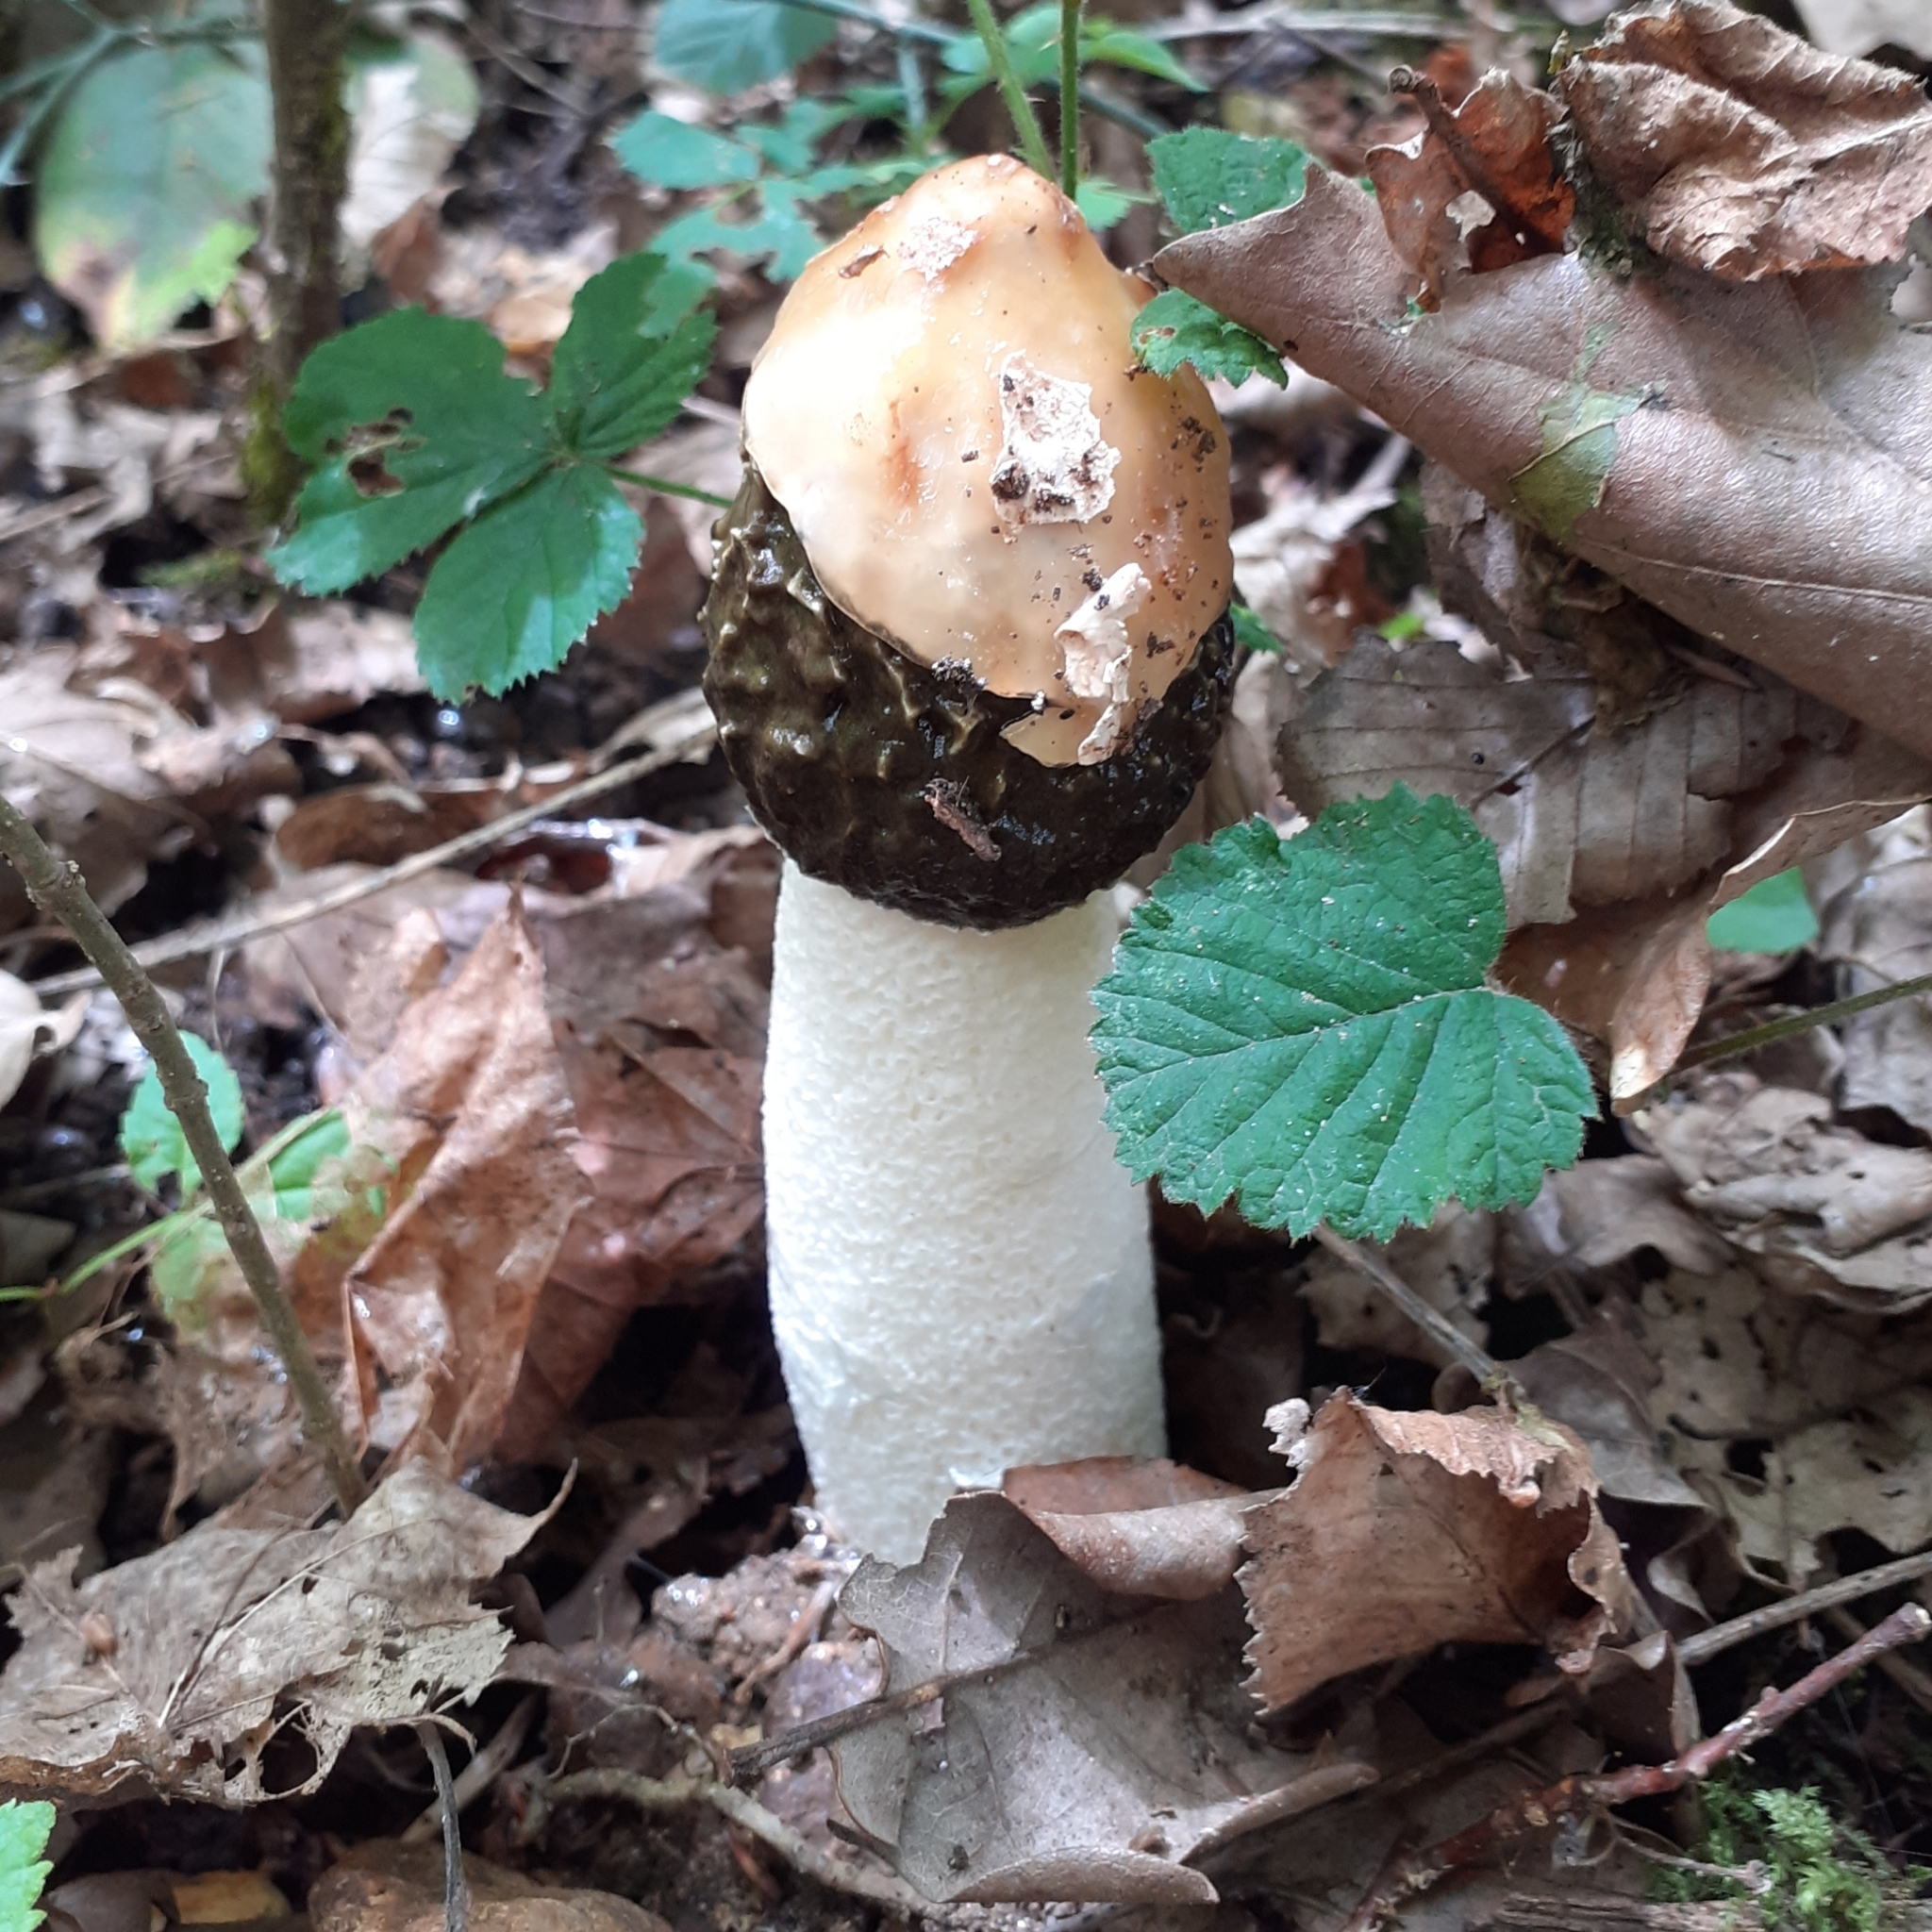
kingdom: Fungi
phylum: Basidiomycota
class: Agaricomycetes
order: Phallales
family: Phallaceae
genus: Phallus
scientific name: Phallus impudicus
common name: Common stinkhorn
